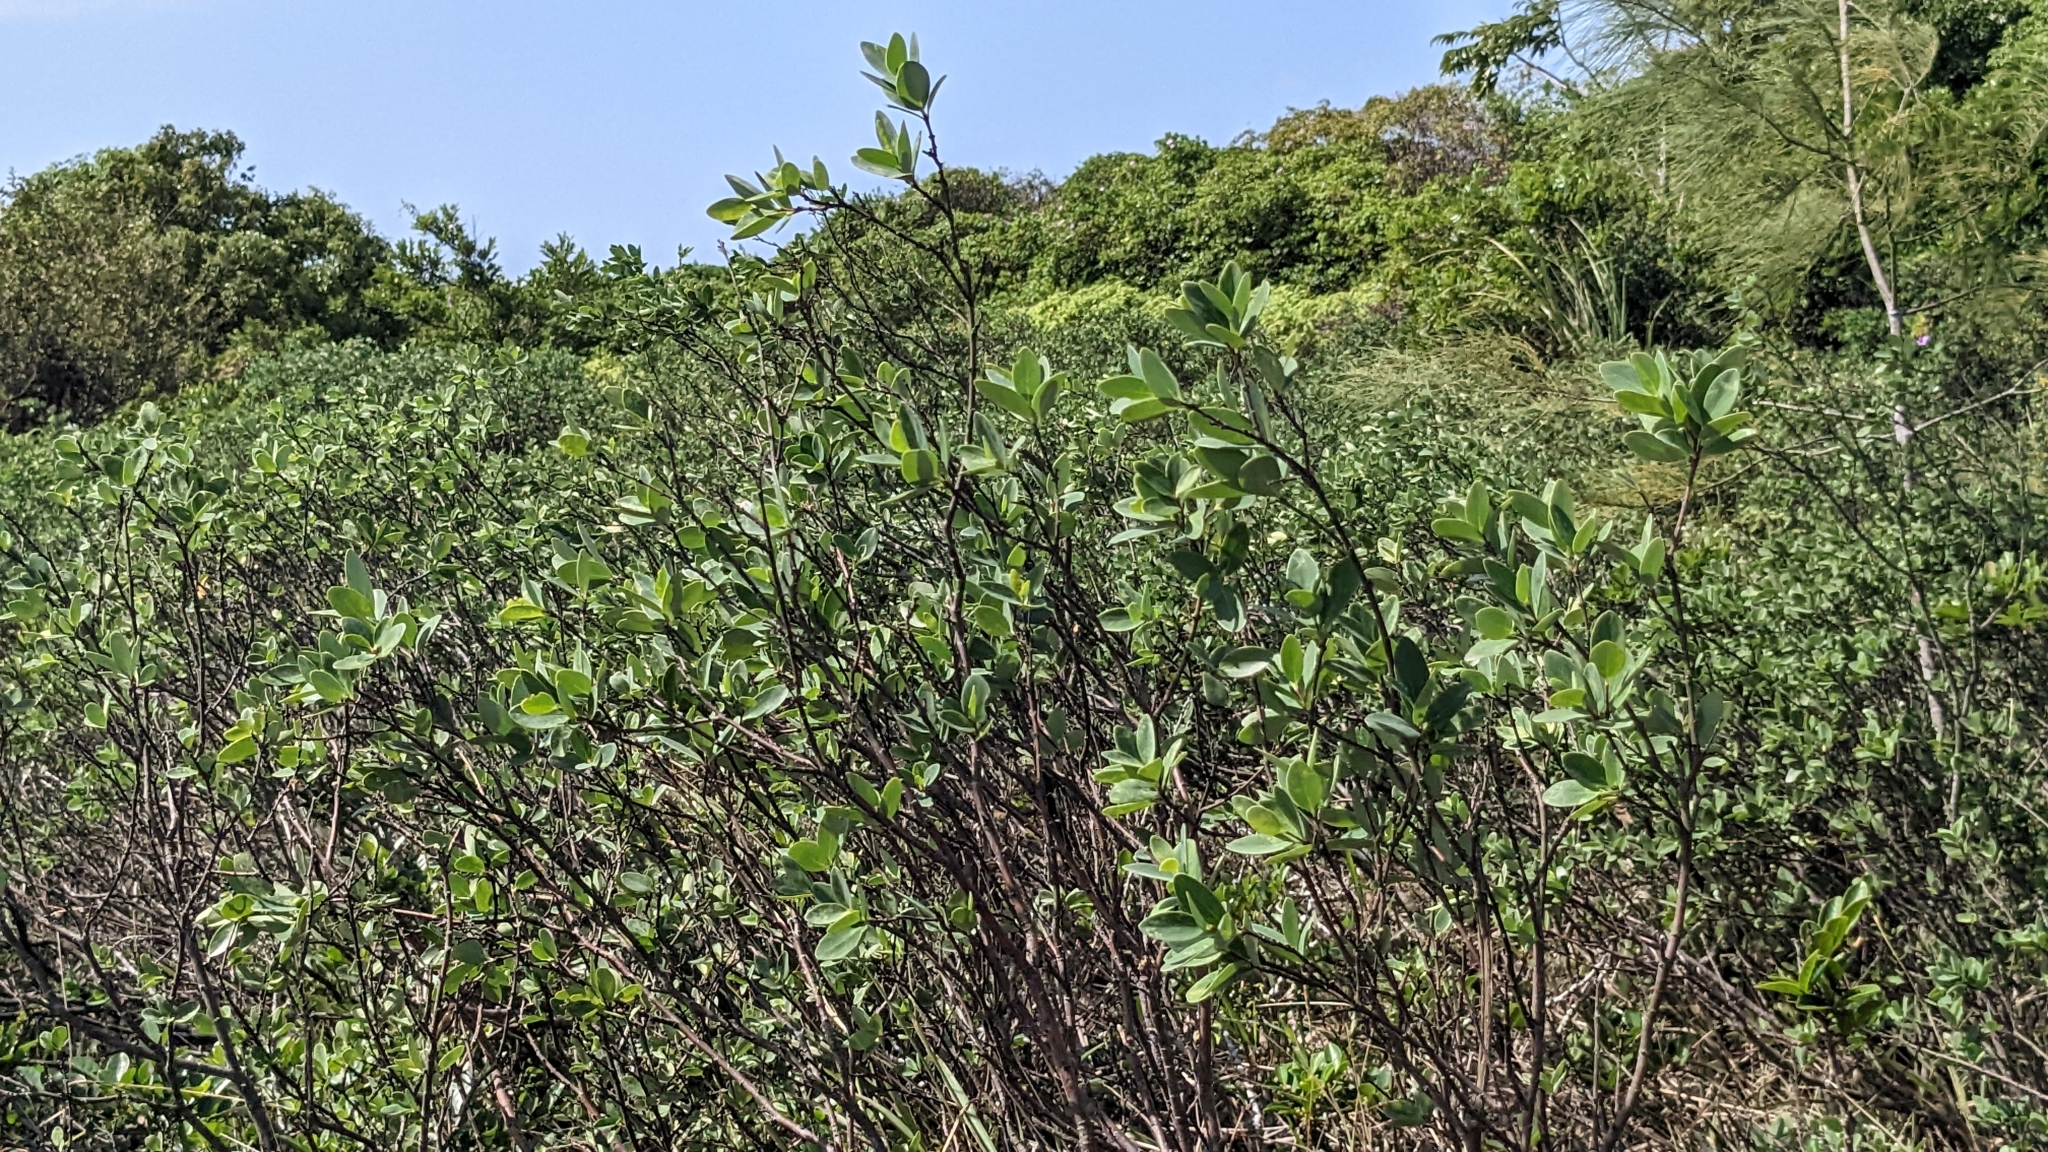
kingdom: Plantae
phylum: Tracheophyta
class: Magnoliopsida
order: Malvales
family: Thymelaeaceae
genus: Wikstroemia
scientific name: Wikstroemia indica
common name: Tiebush
